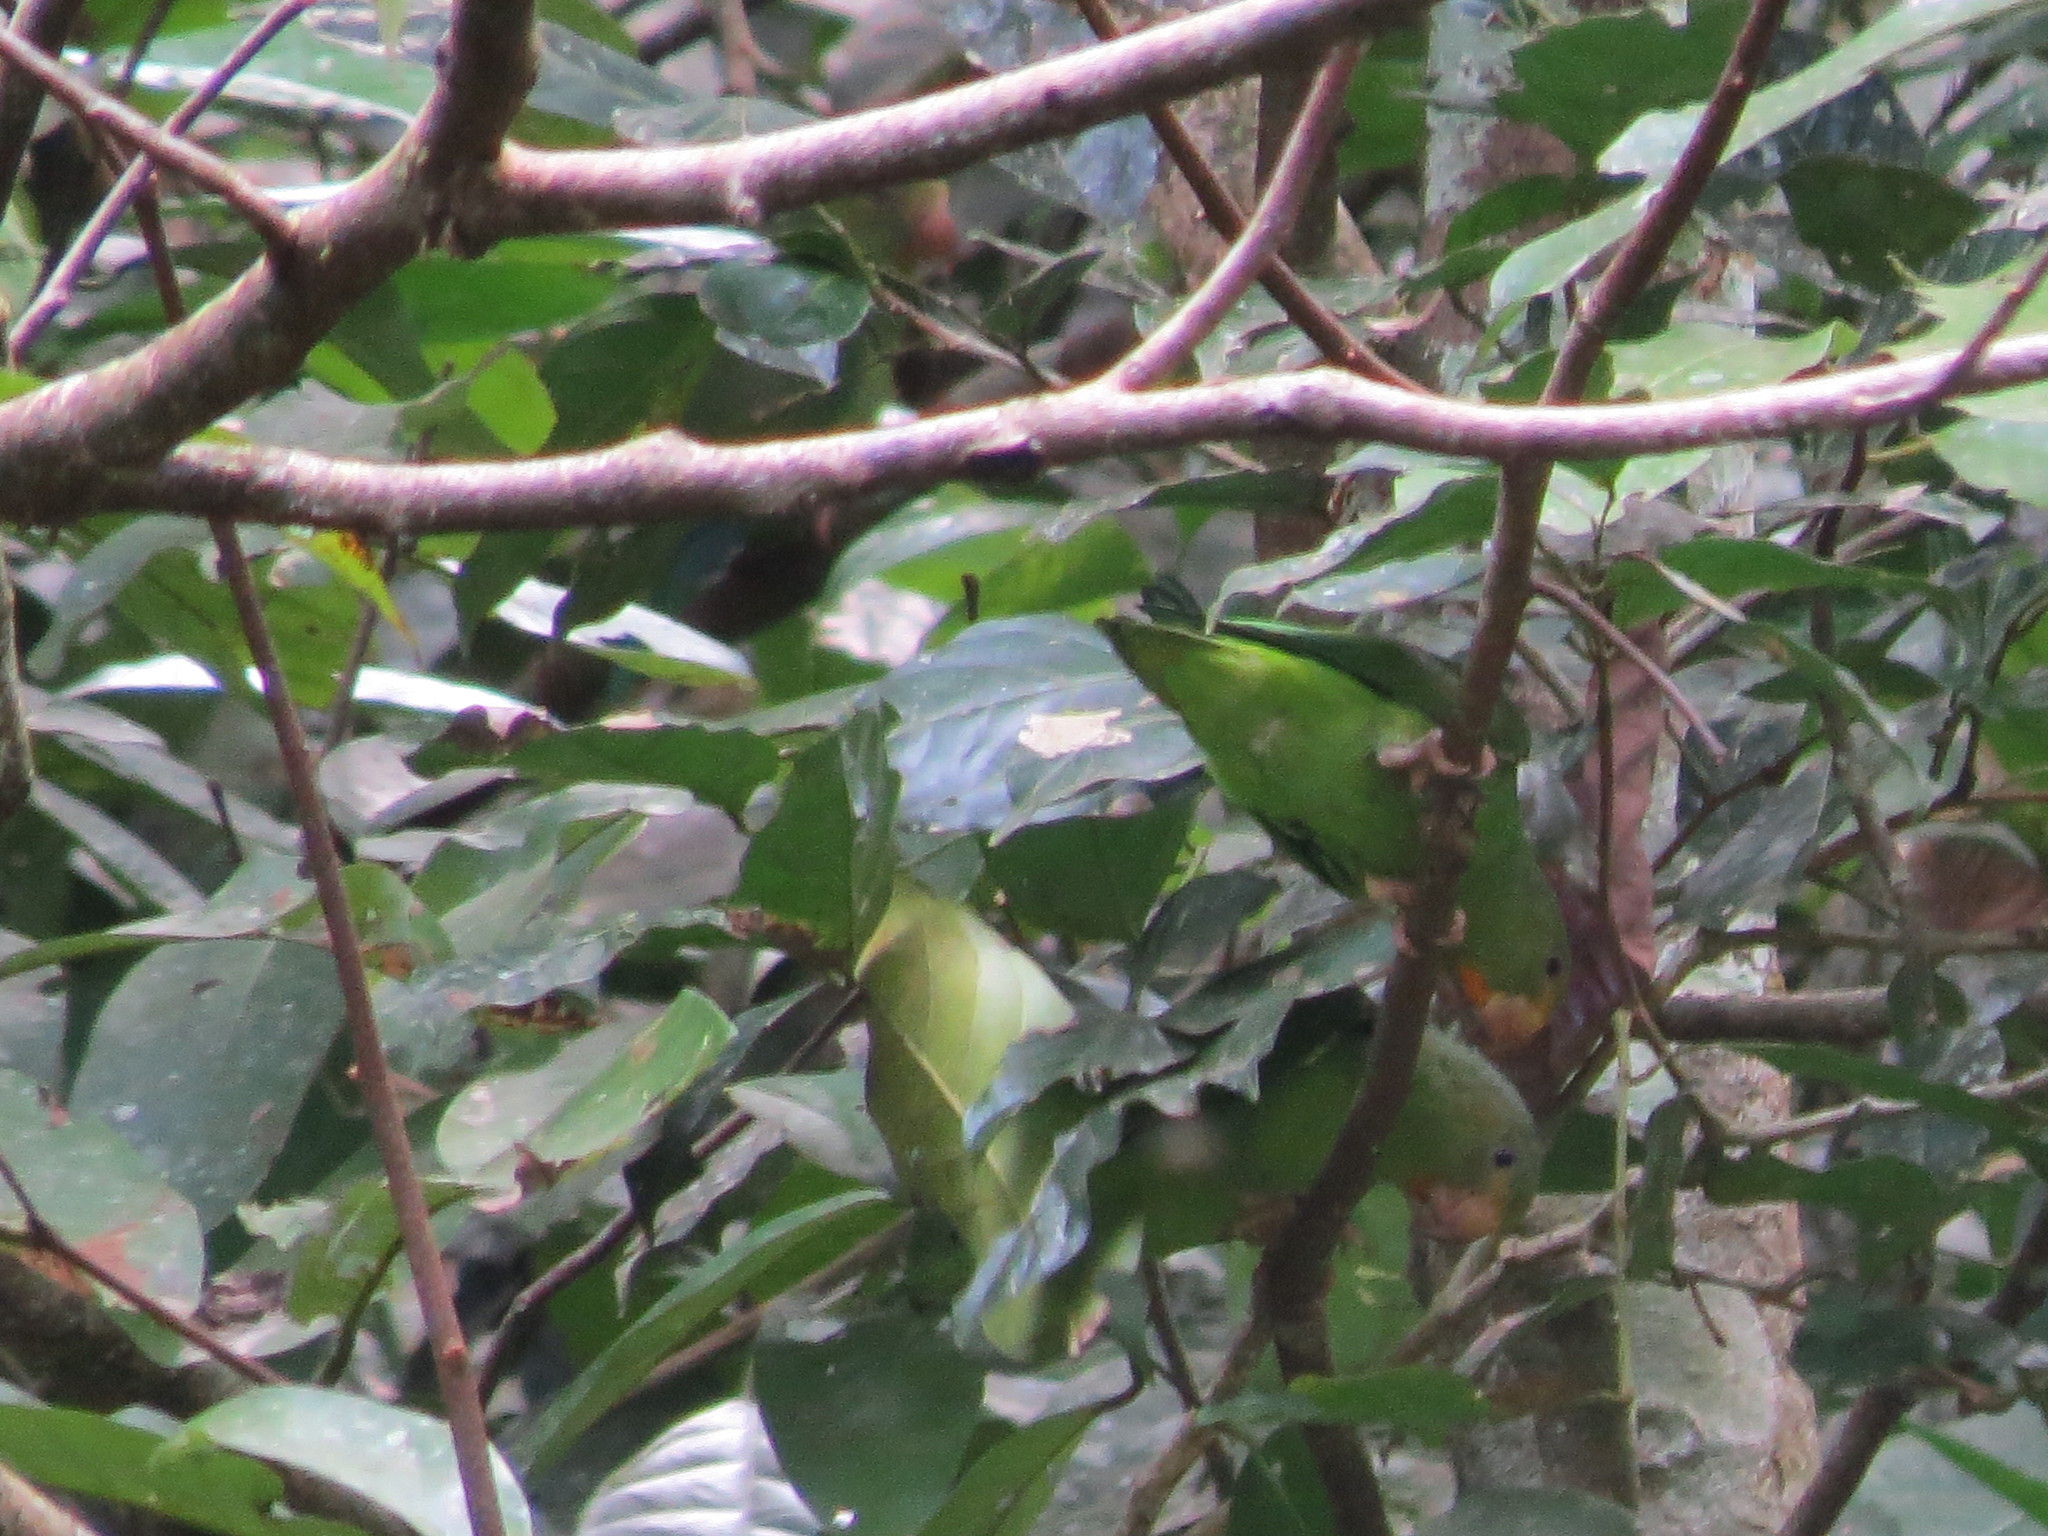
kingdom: Animalia
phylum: Chordata
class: Aves
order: Psittaciformes
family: Psittacidae
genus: Brotogeris
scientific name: Brotogeris cyanoptera
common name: Cobalt-winged parakeet
